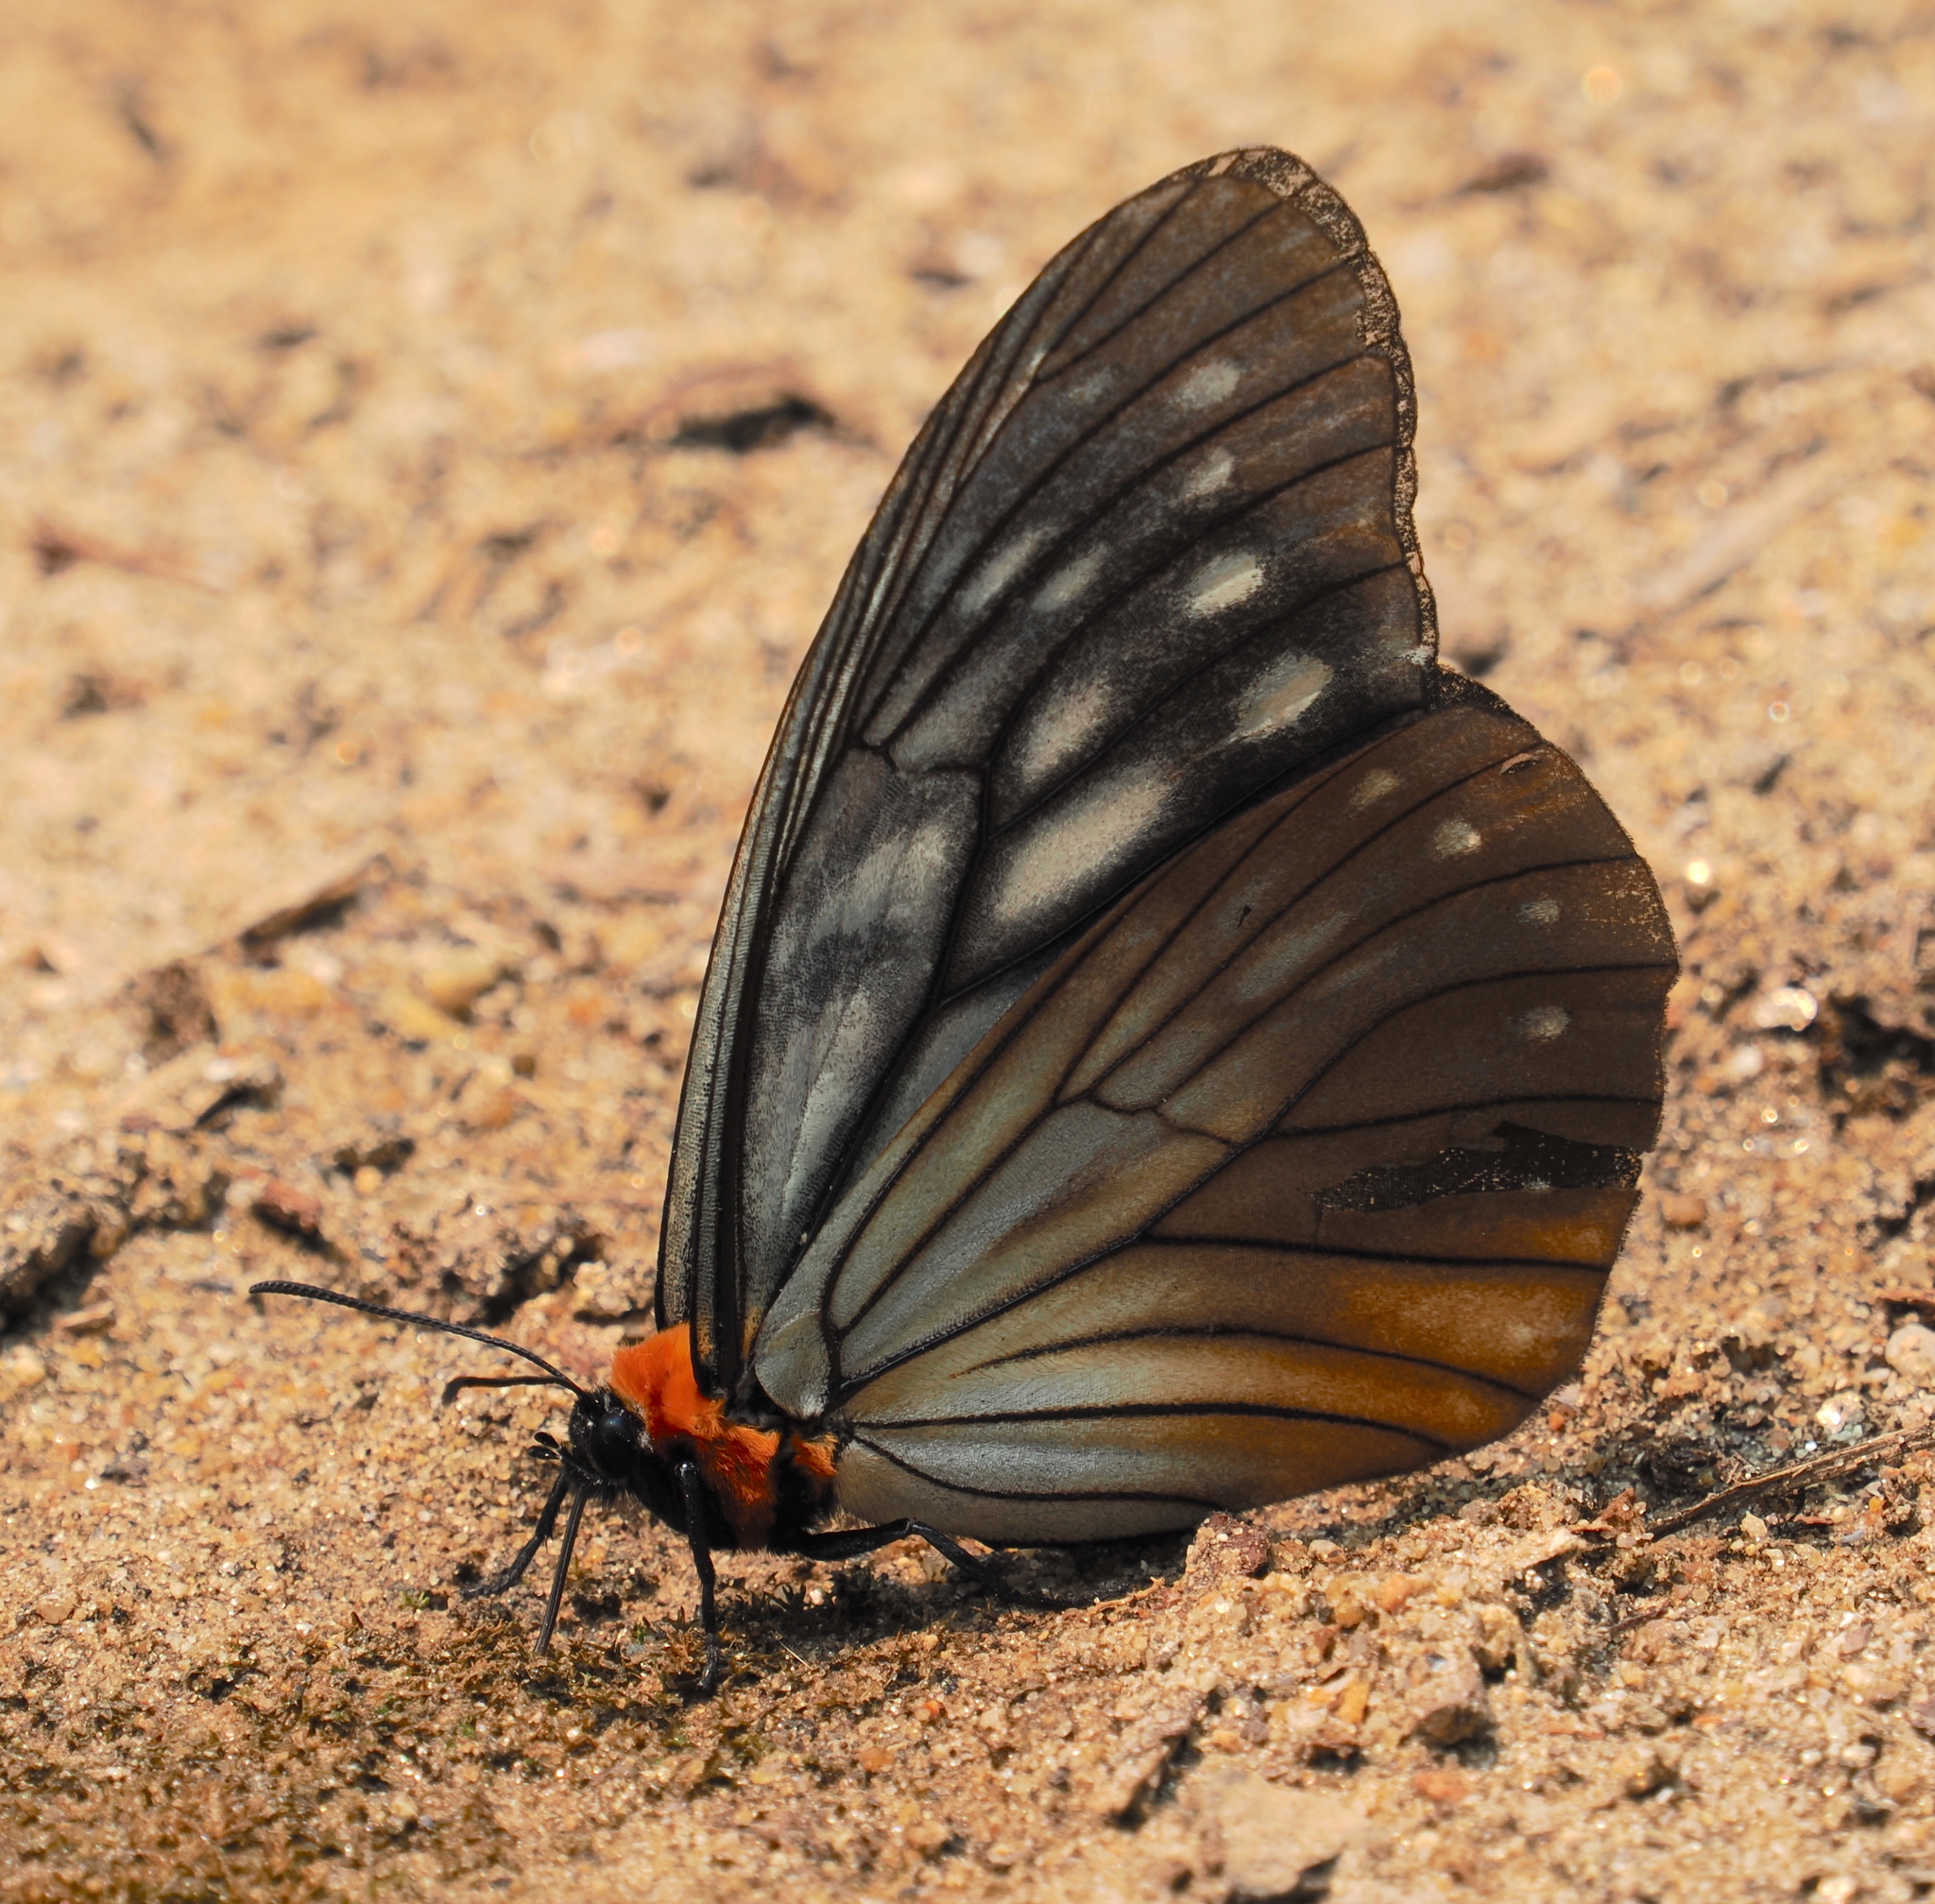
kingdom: Animalia
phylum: Arthropoda
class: Insecta
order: Lepidoptera
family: Nymphalidae
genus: Calinaga
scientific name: Calinaga sudassana
